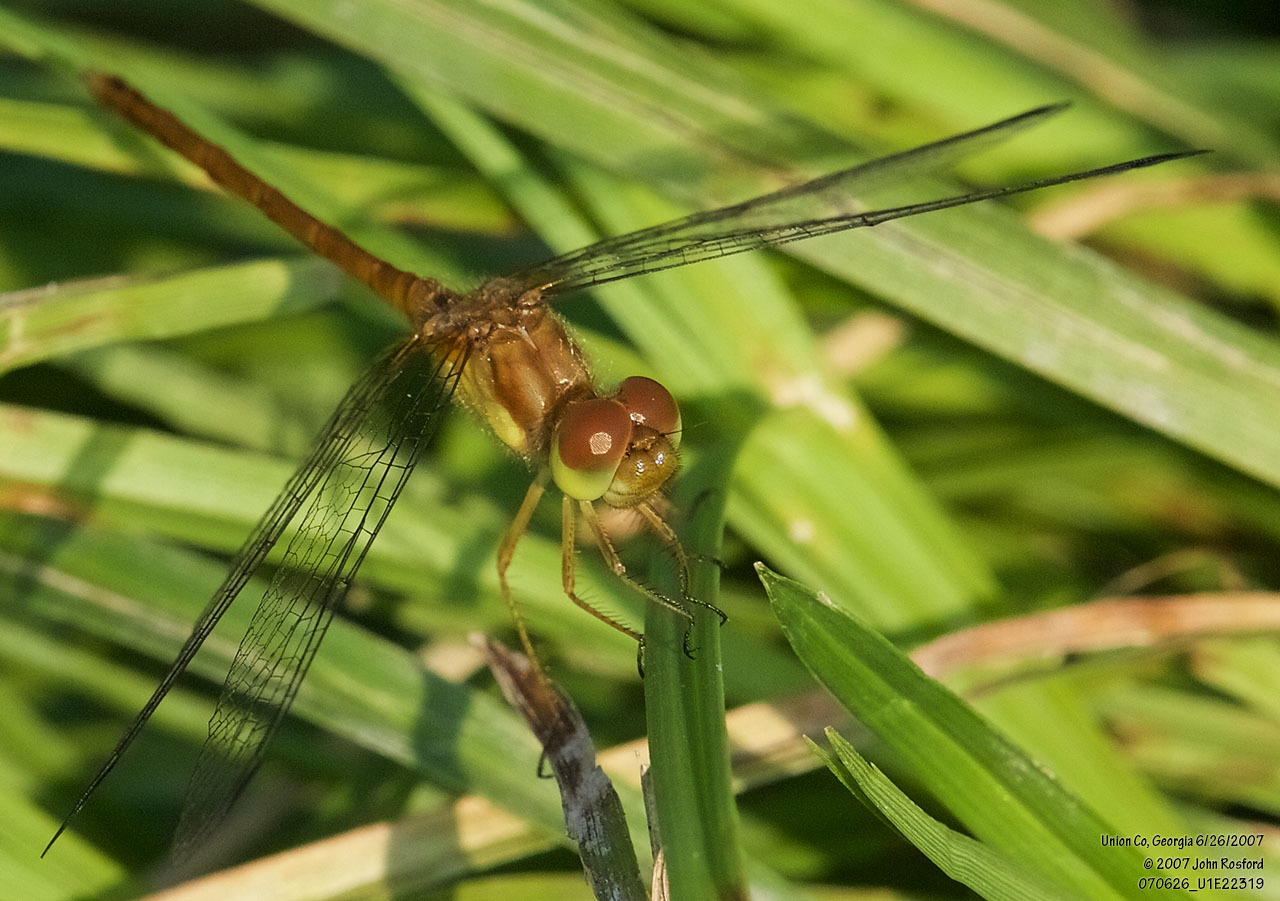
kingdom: Animalia
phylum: Arthropoda
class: Insecta
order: Odonata
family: Libellulidae
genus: Sympetrum
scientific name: Sympetrum vicinum
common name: Autumn meadowhawk
